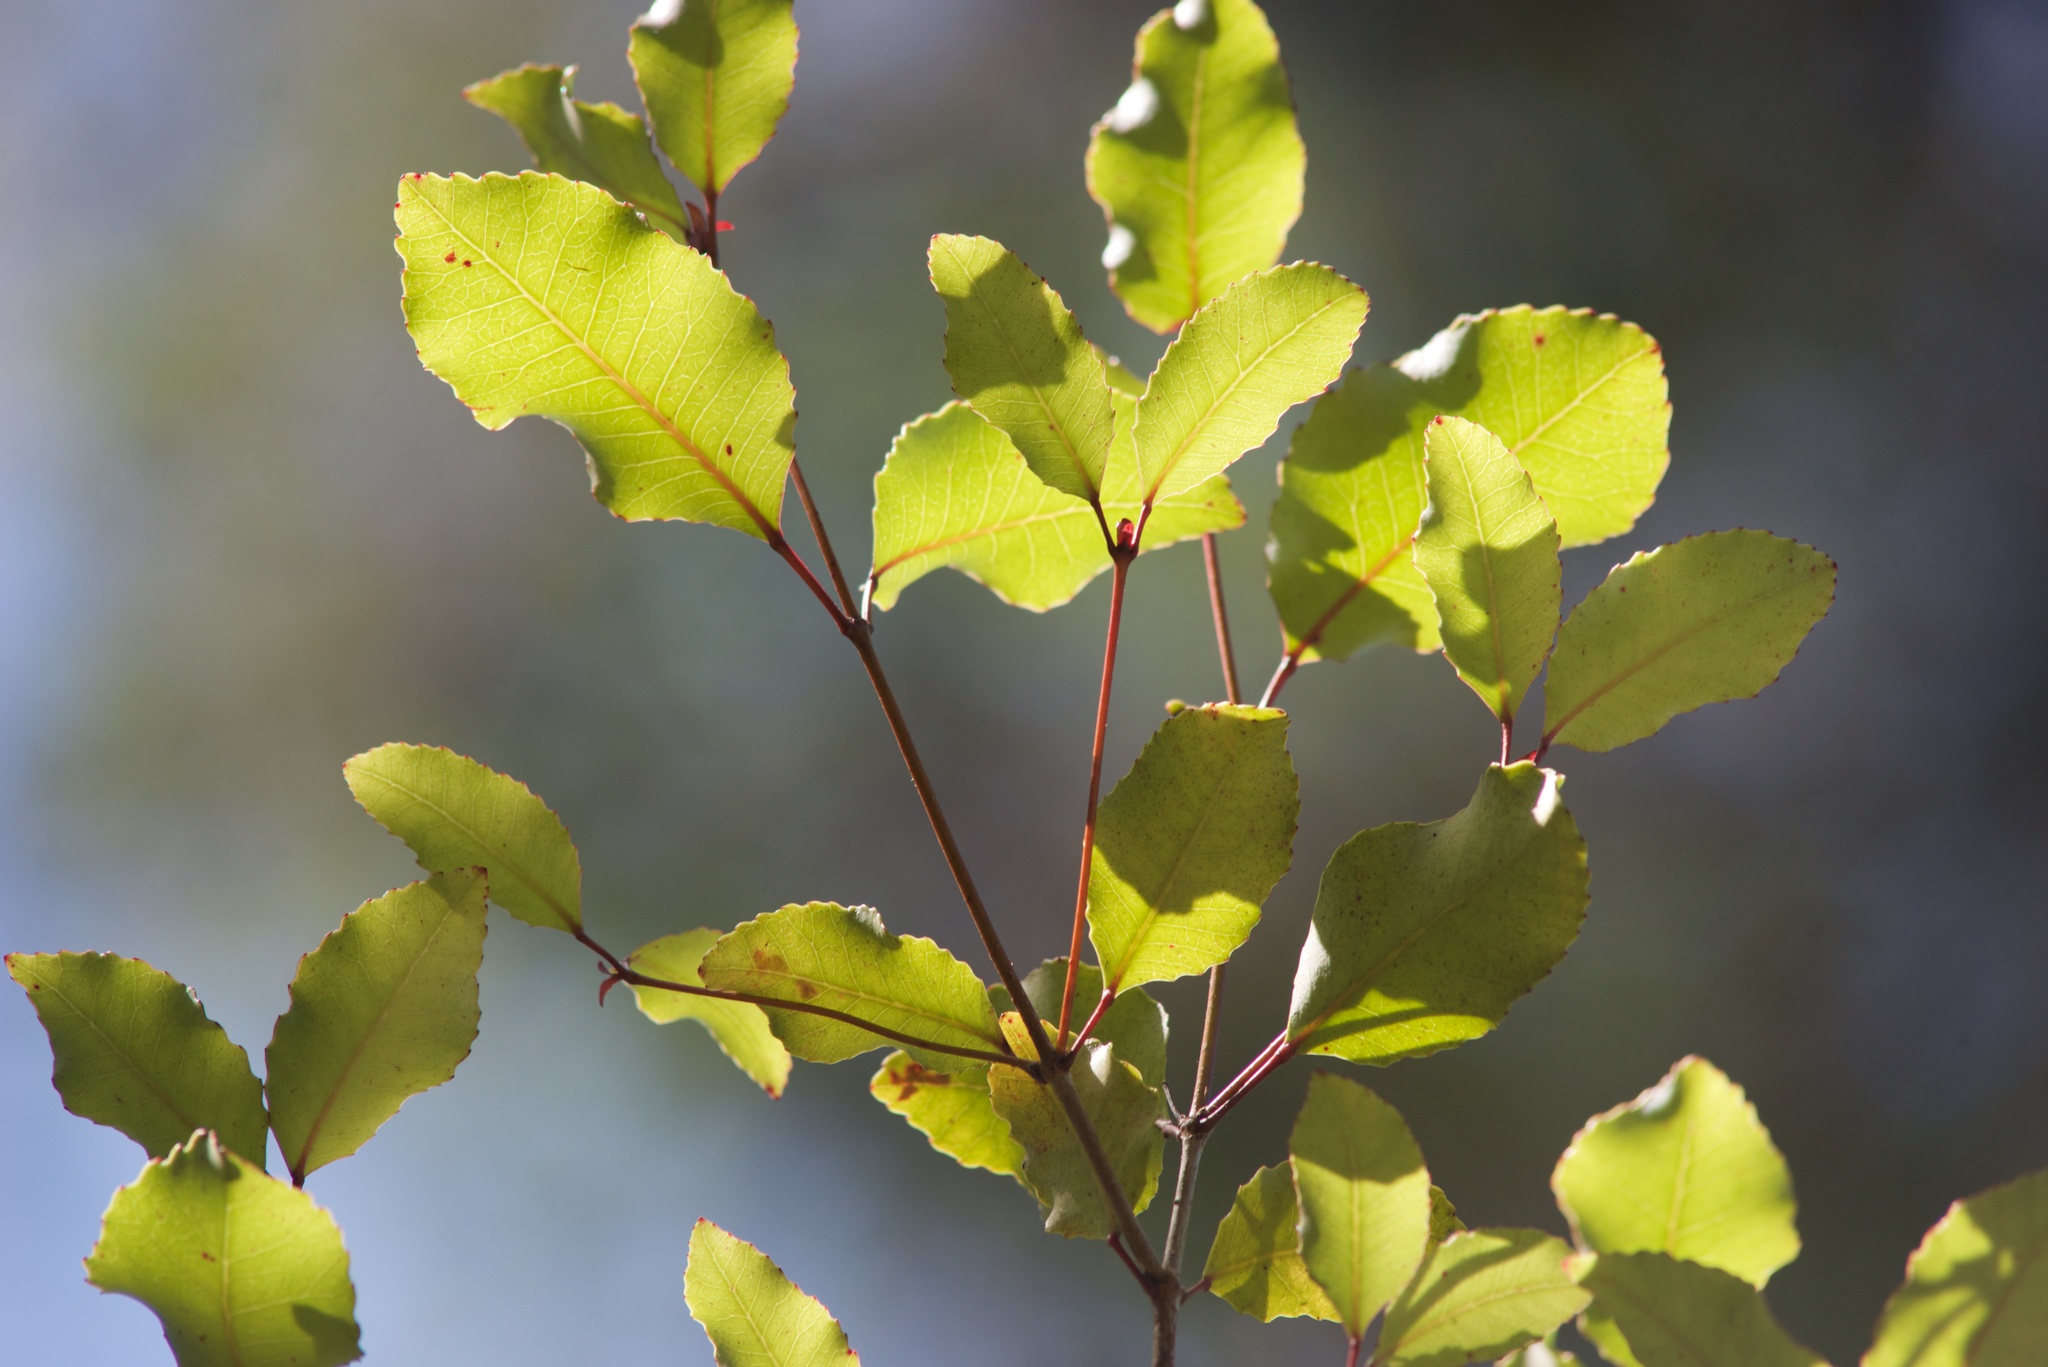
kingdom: Plantae
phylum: Tracheophyta
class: Magnoliopsida
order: Oxalidales
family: Cunoniaceae
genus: Pterophylla
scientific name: Pterophylla racemosa
